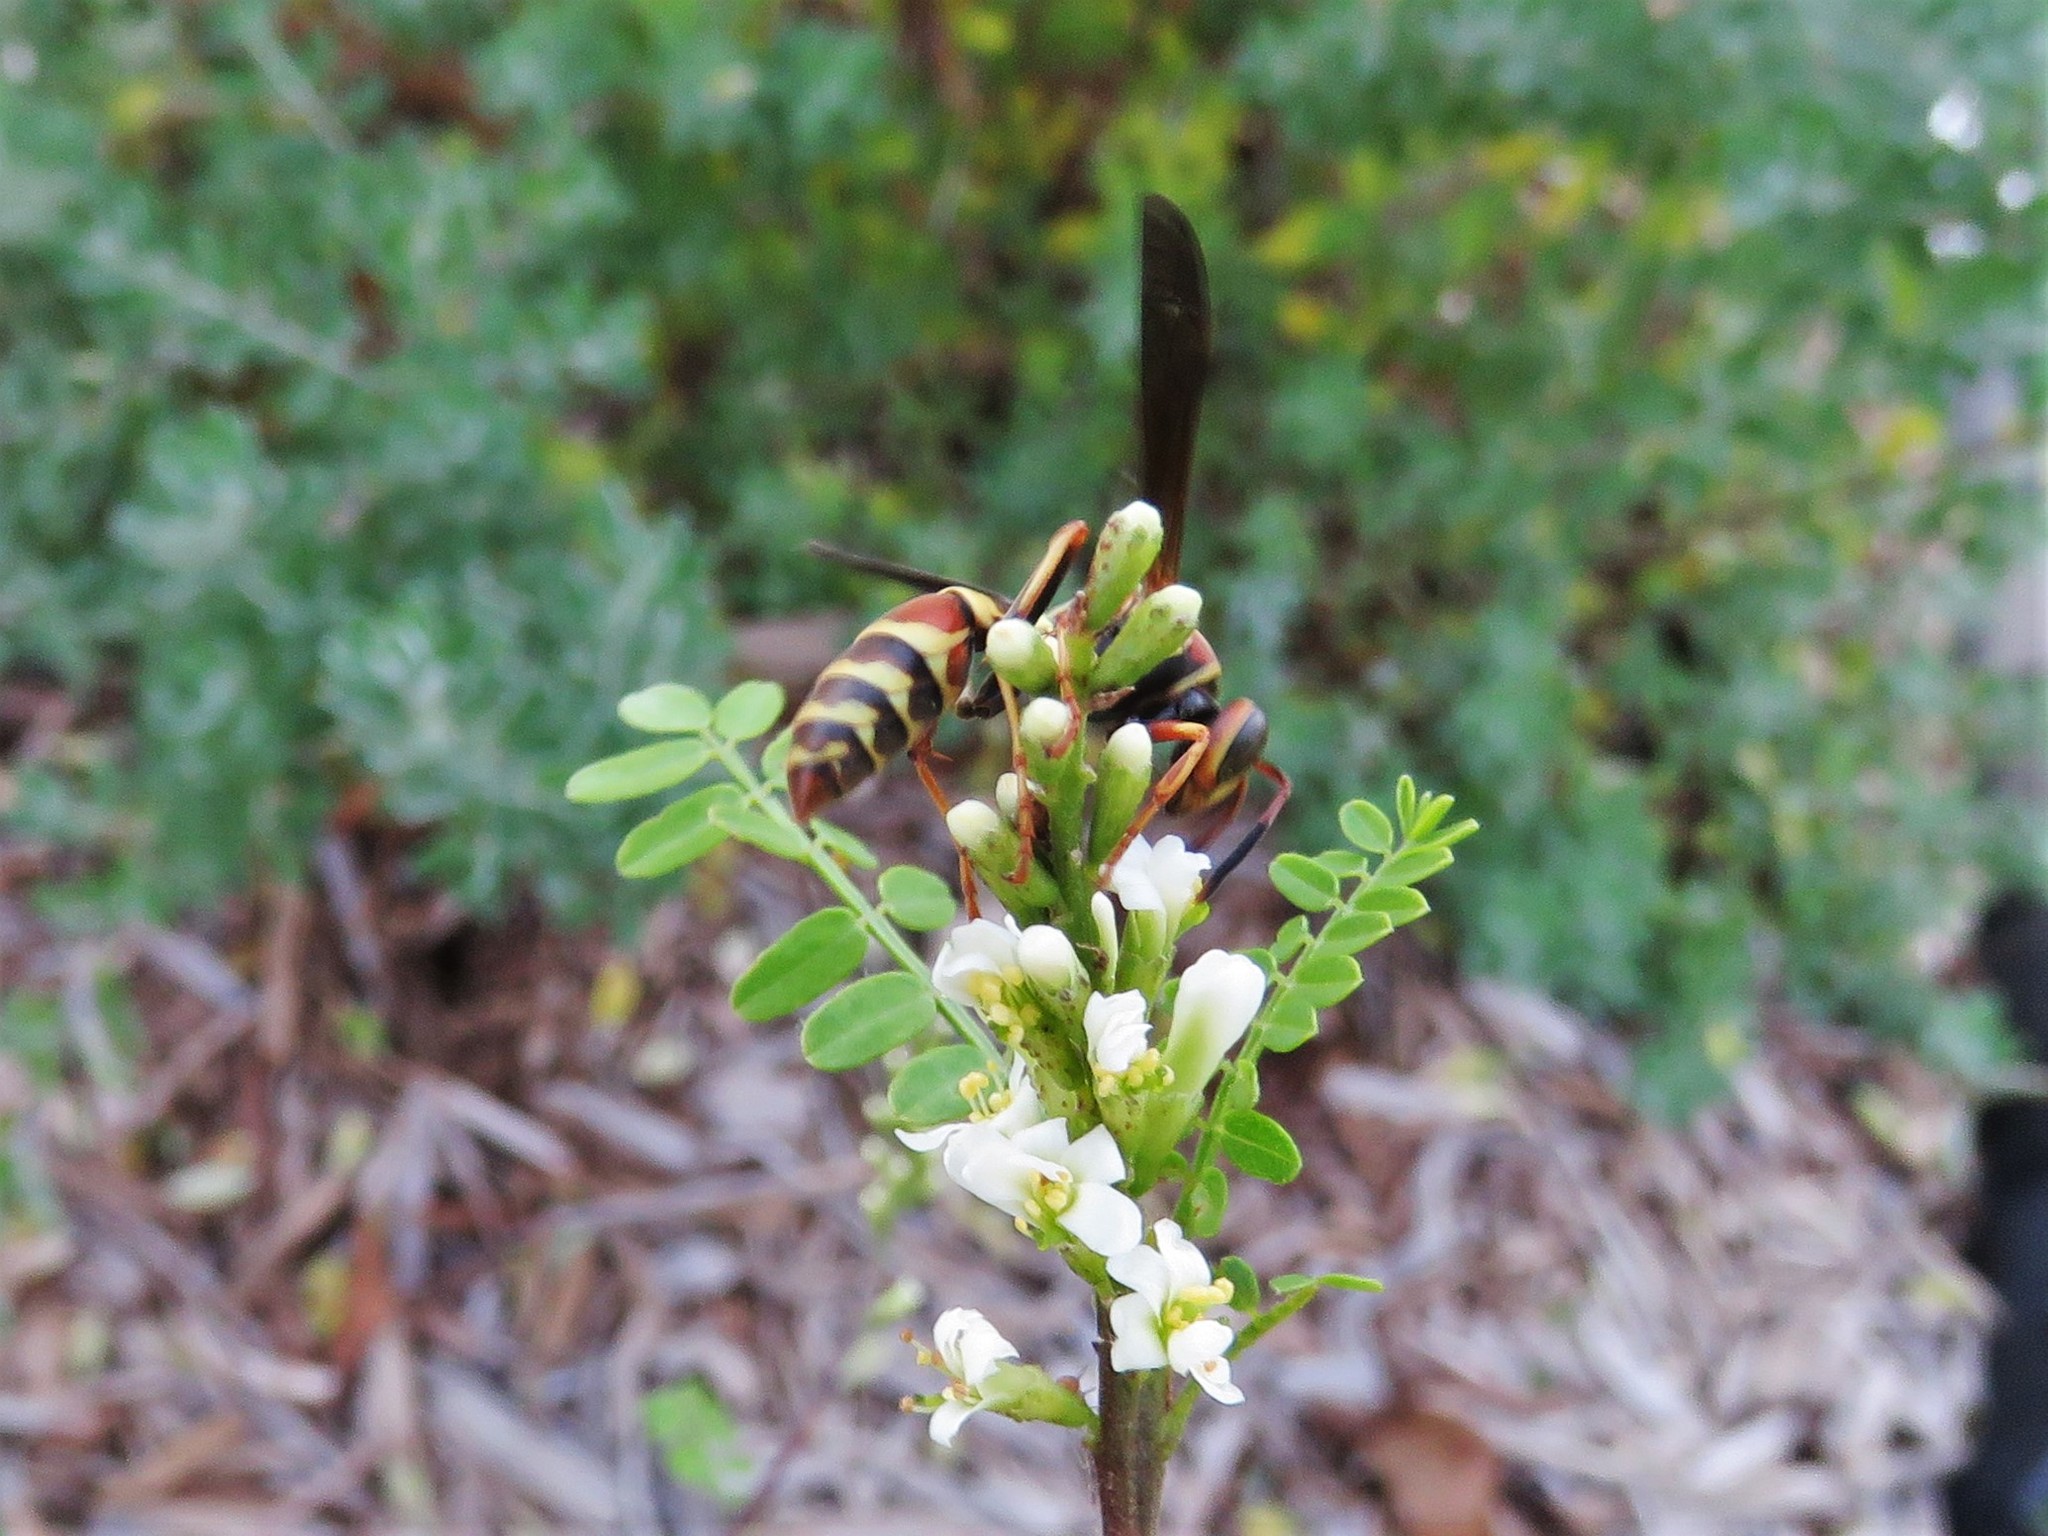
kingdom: Animalia
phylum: Arthropoda
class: Insecta
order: Hymenoptera
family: Eumenidae
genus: Polistes
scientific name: Polistes dorsalis
